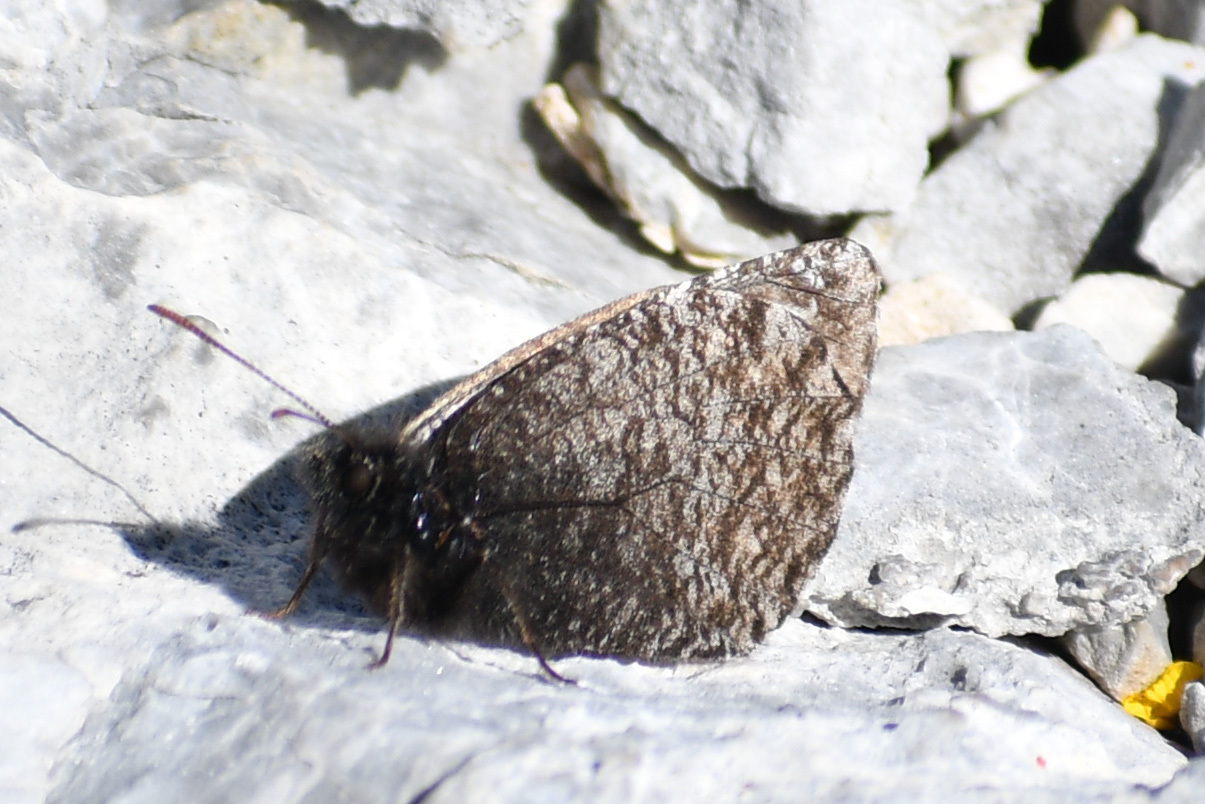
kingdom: Animalia
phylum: Arthropoda
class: Insecta
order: Lepidoptera
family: Nymphalidae
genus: Oeneis
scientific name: Oeneis chryxus
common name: Chryxus arctic
